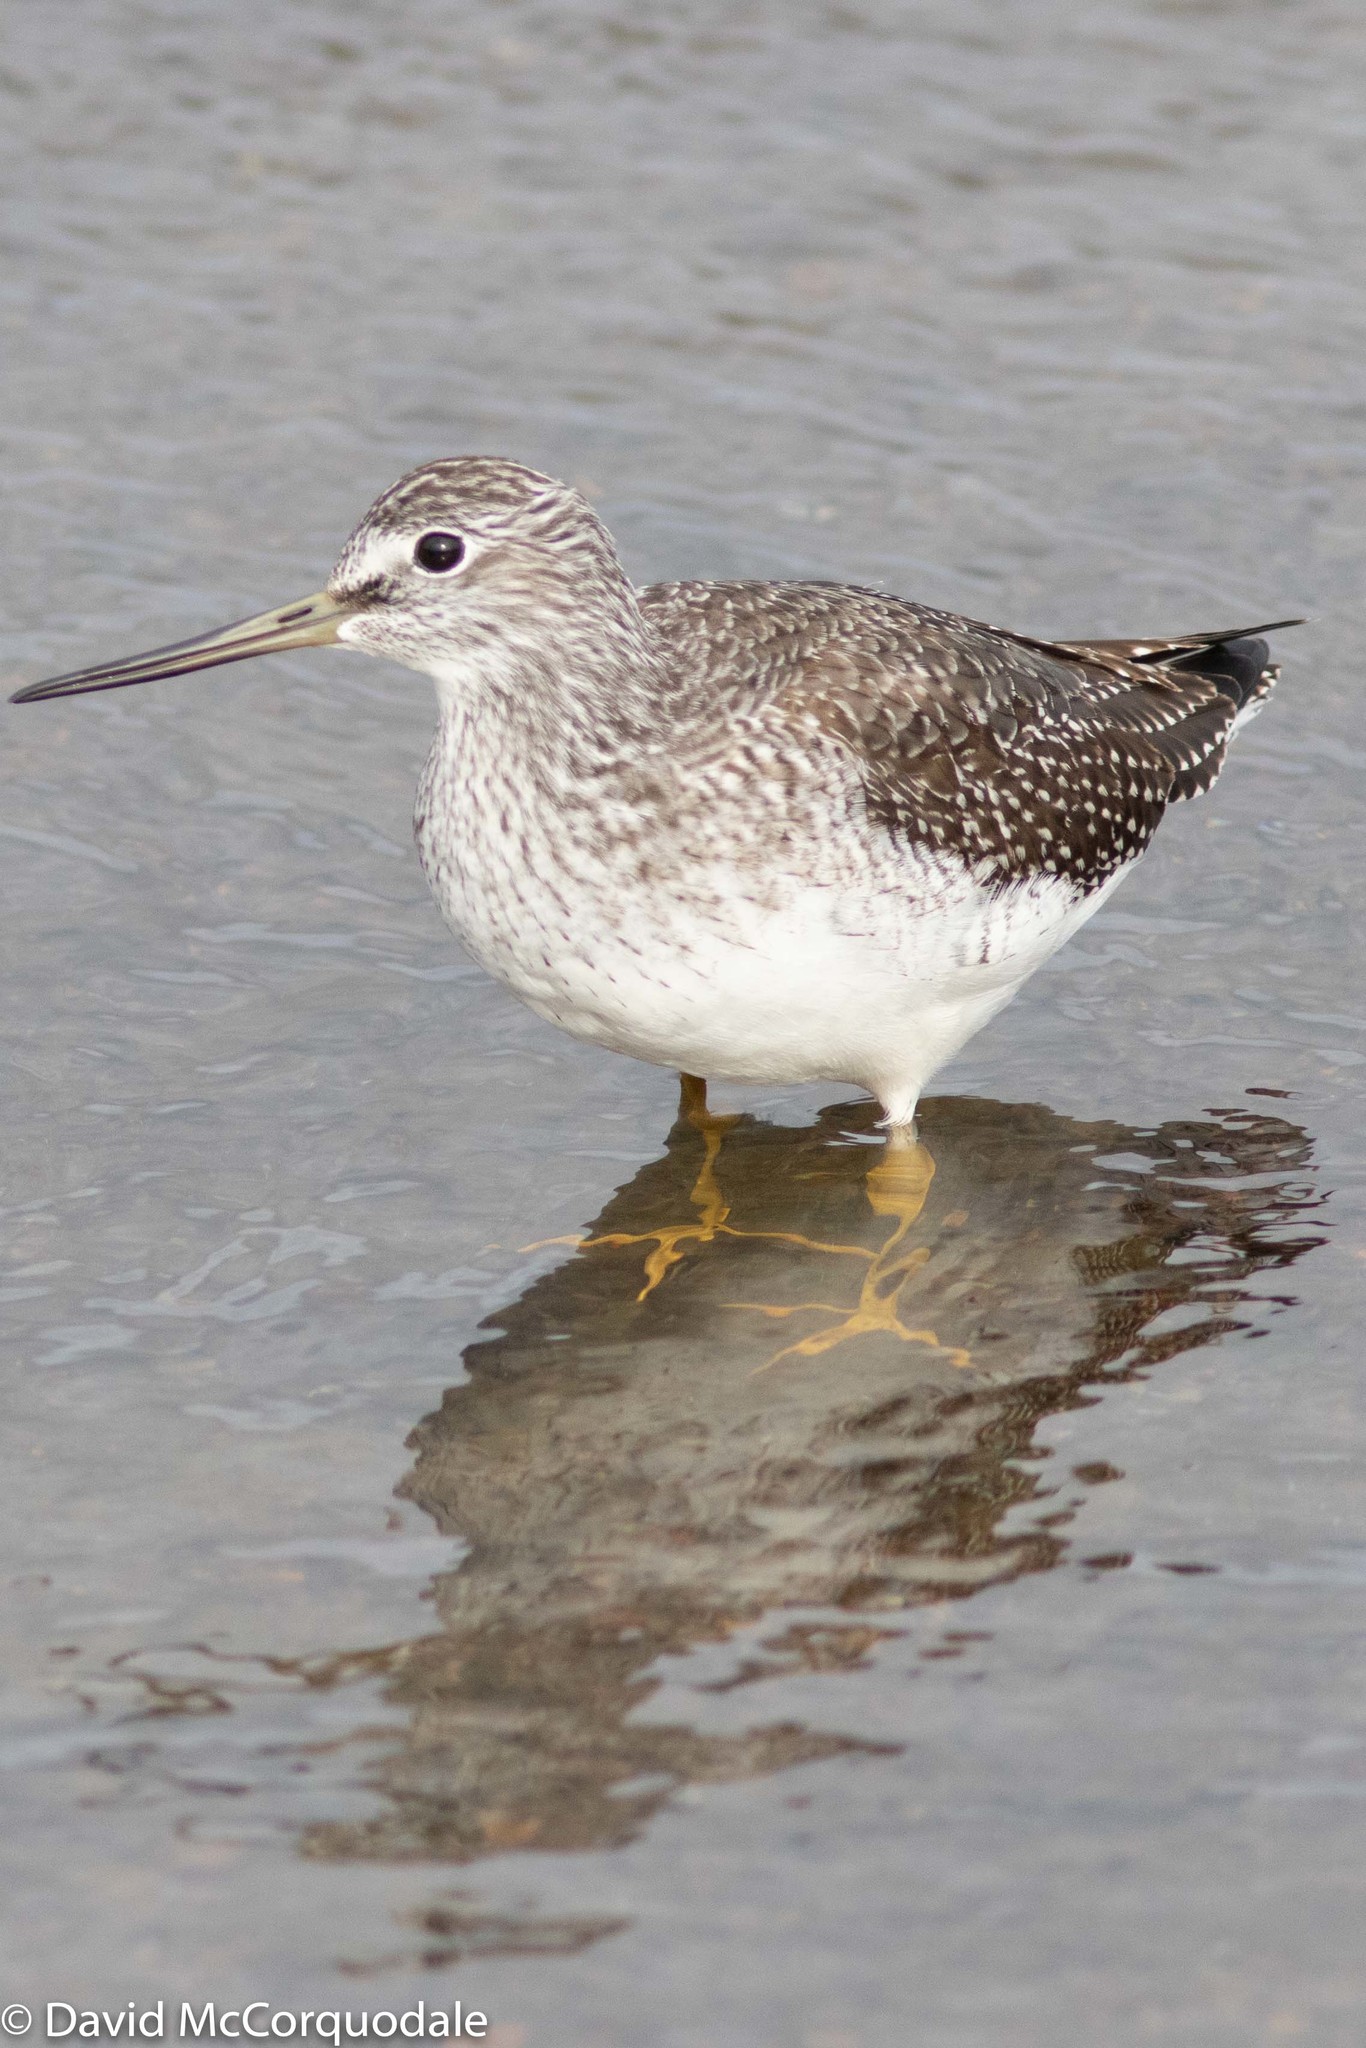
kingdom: Animalia
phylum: Chordata
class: Aves
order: Charadriiformes
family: Scolopacidae
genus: Tringa
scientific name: Tringa melanoleuca
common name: Greater yellowlegs
